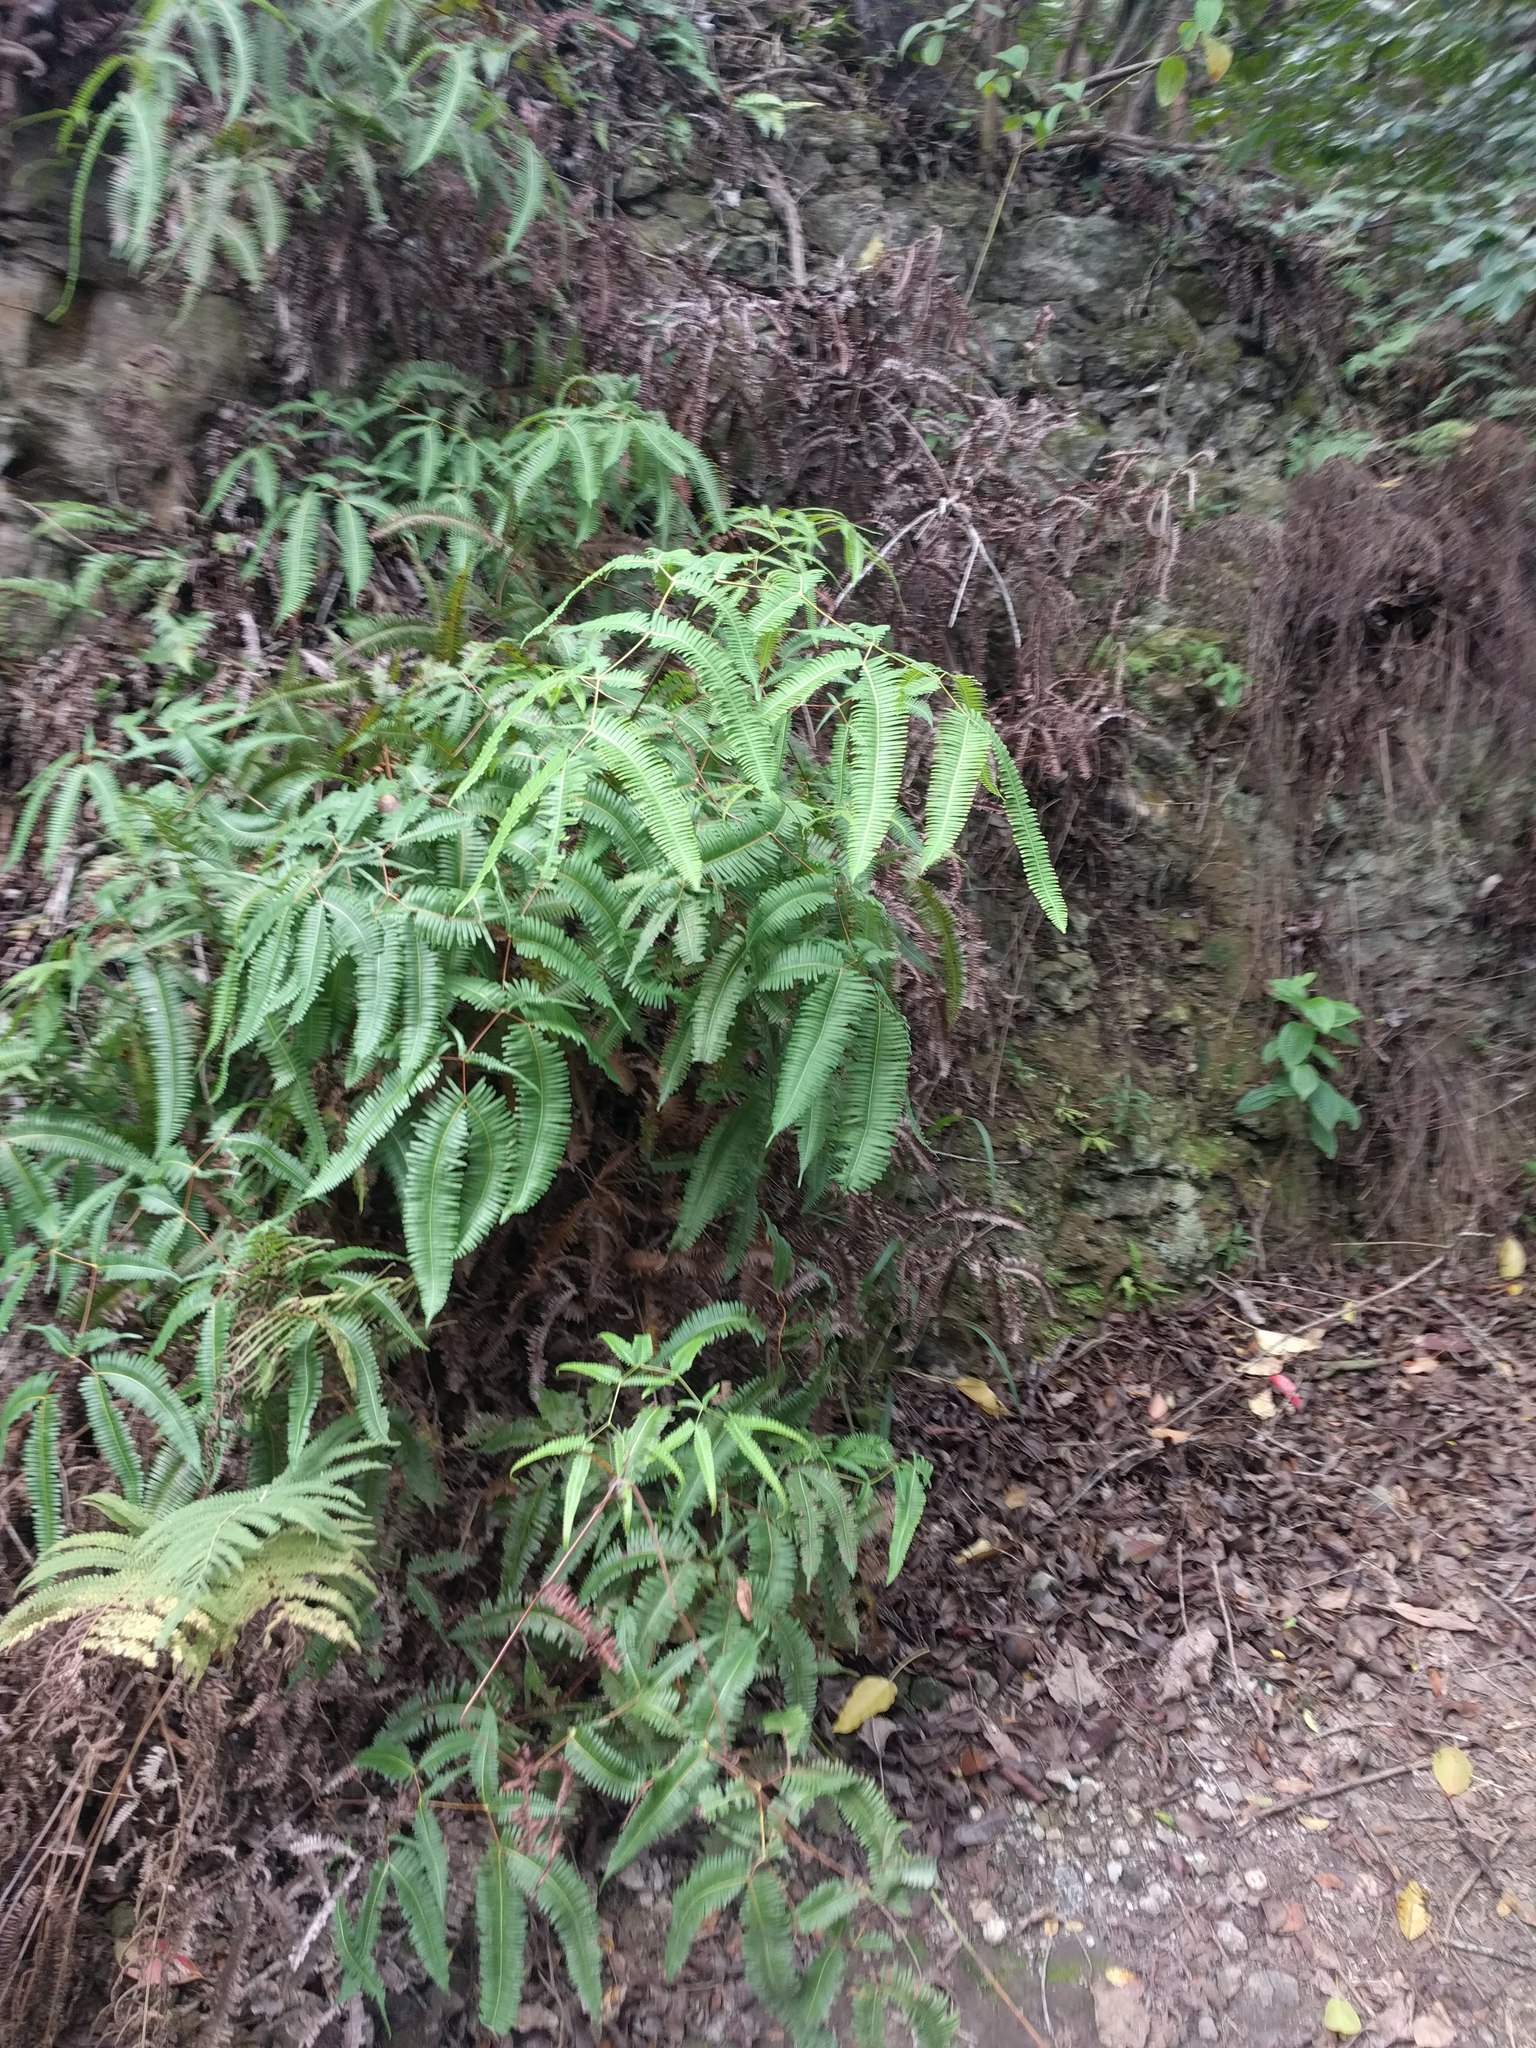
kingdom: Plantae
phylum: Tracheophyta
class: Polypodiopsida
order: Gleicheniales
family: Gleicheniaceae
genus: Dicranopteris
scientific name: Dicranopteris linearis
